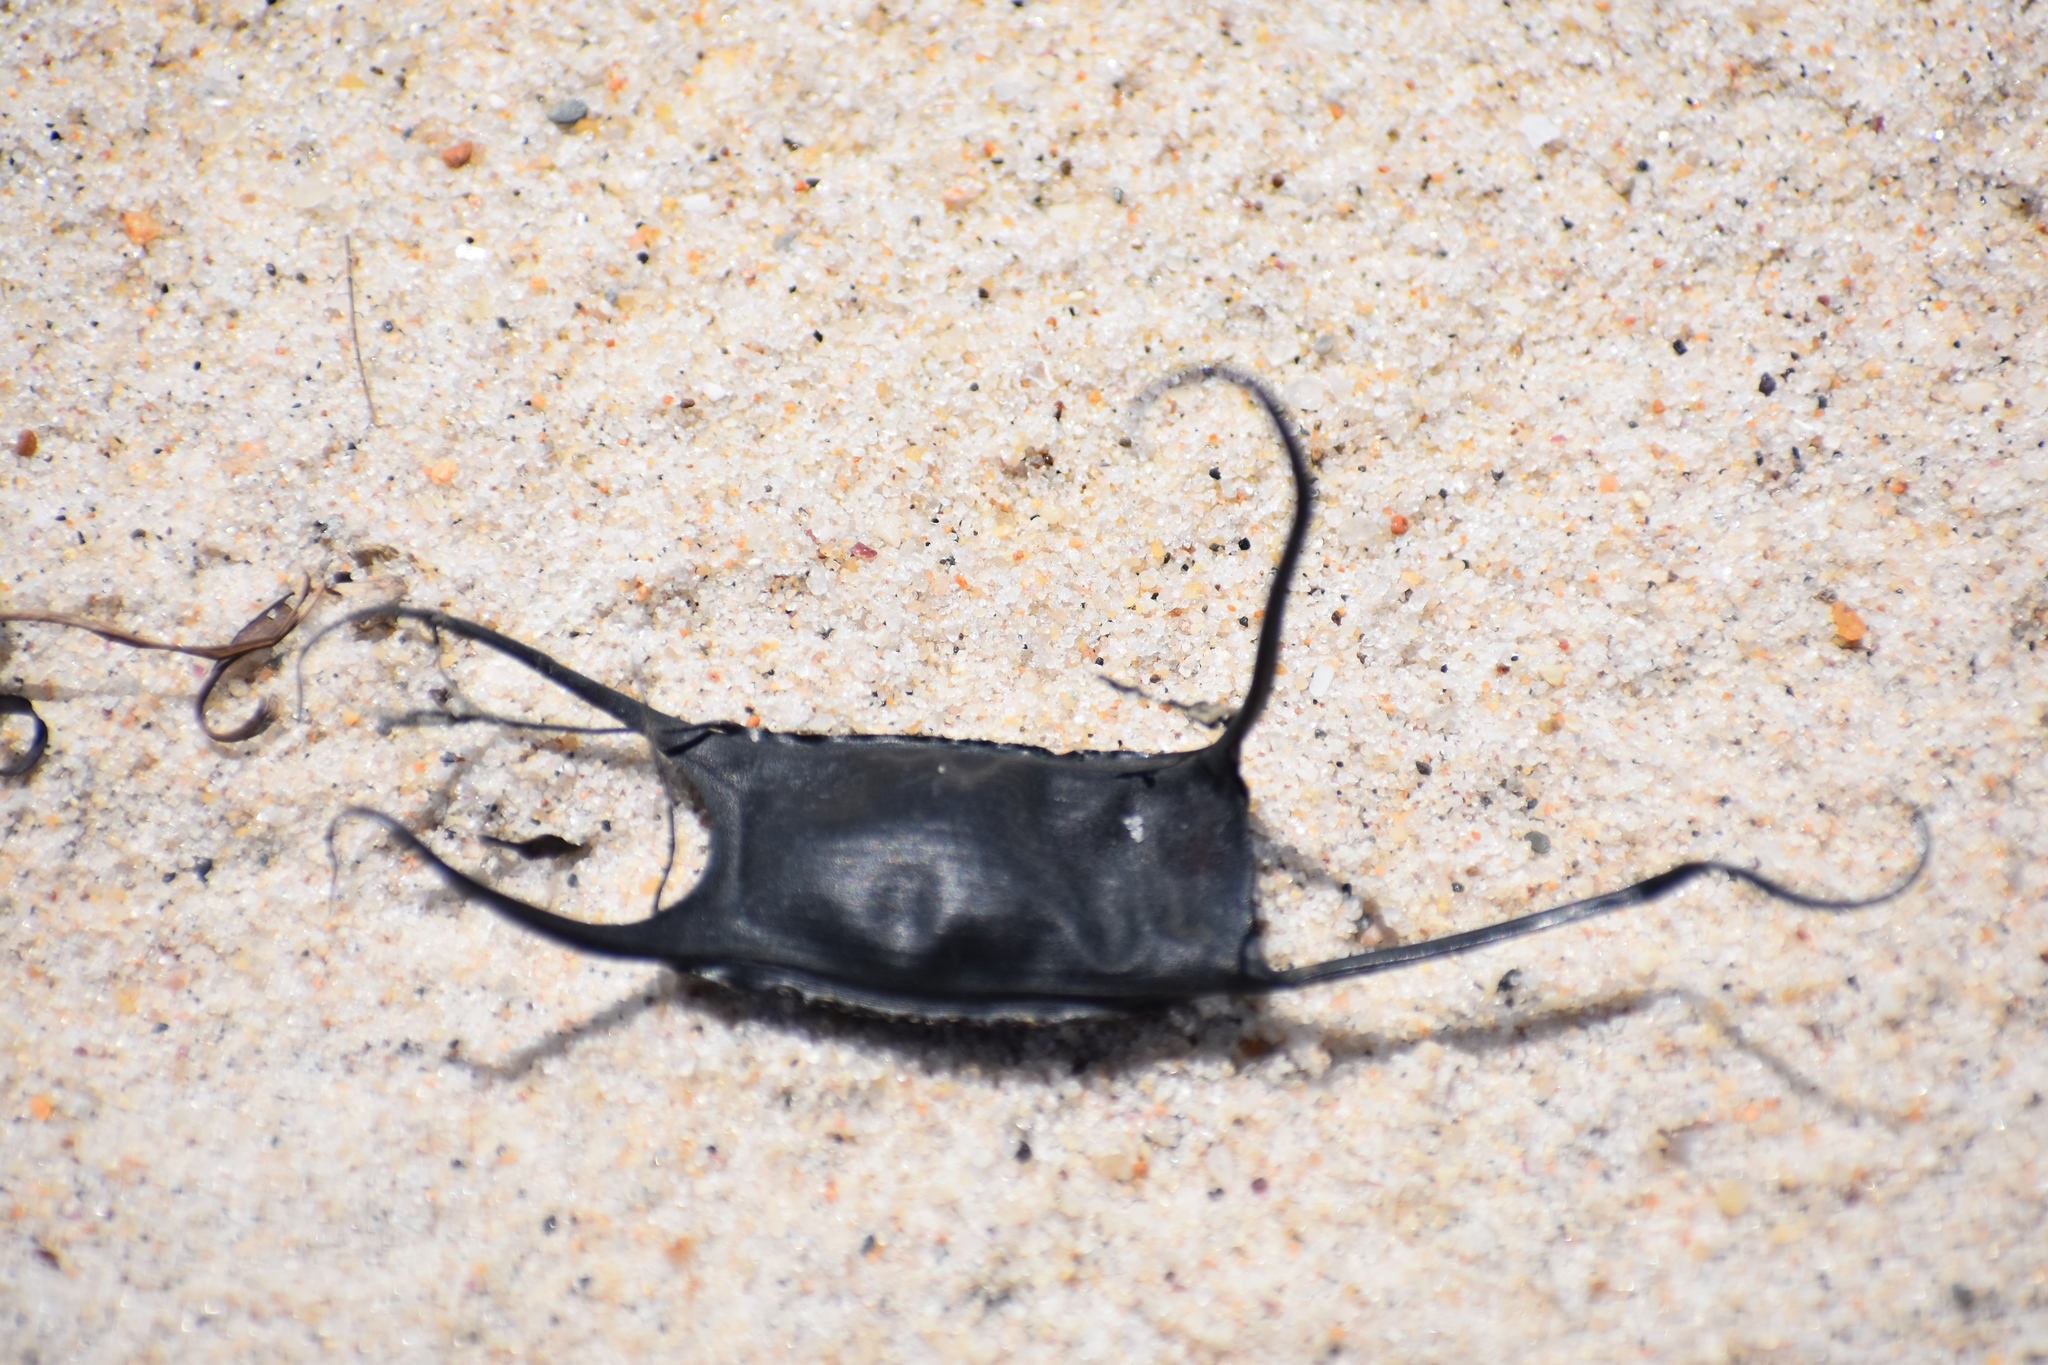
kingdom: Animalia
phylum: Chordata
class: Elasmobranchii
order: Rajiformes
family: Rajidae
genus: Leucoraja
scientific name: Leucoraja garmani
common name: Rosette skate
